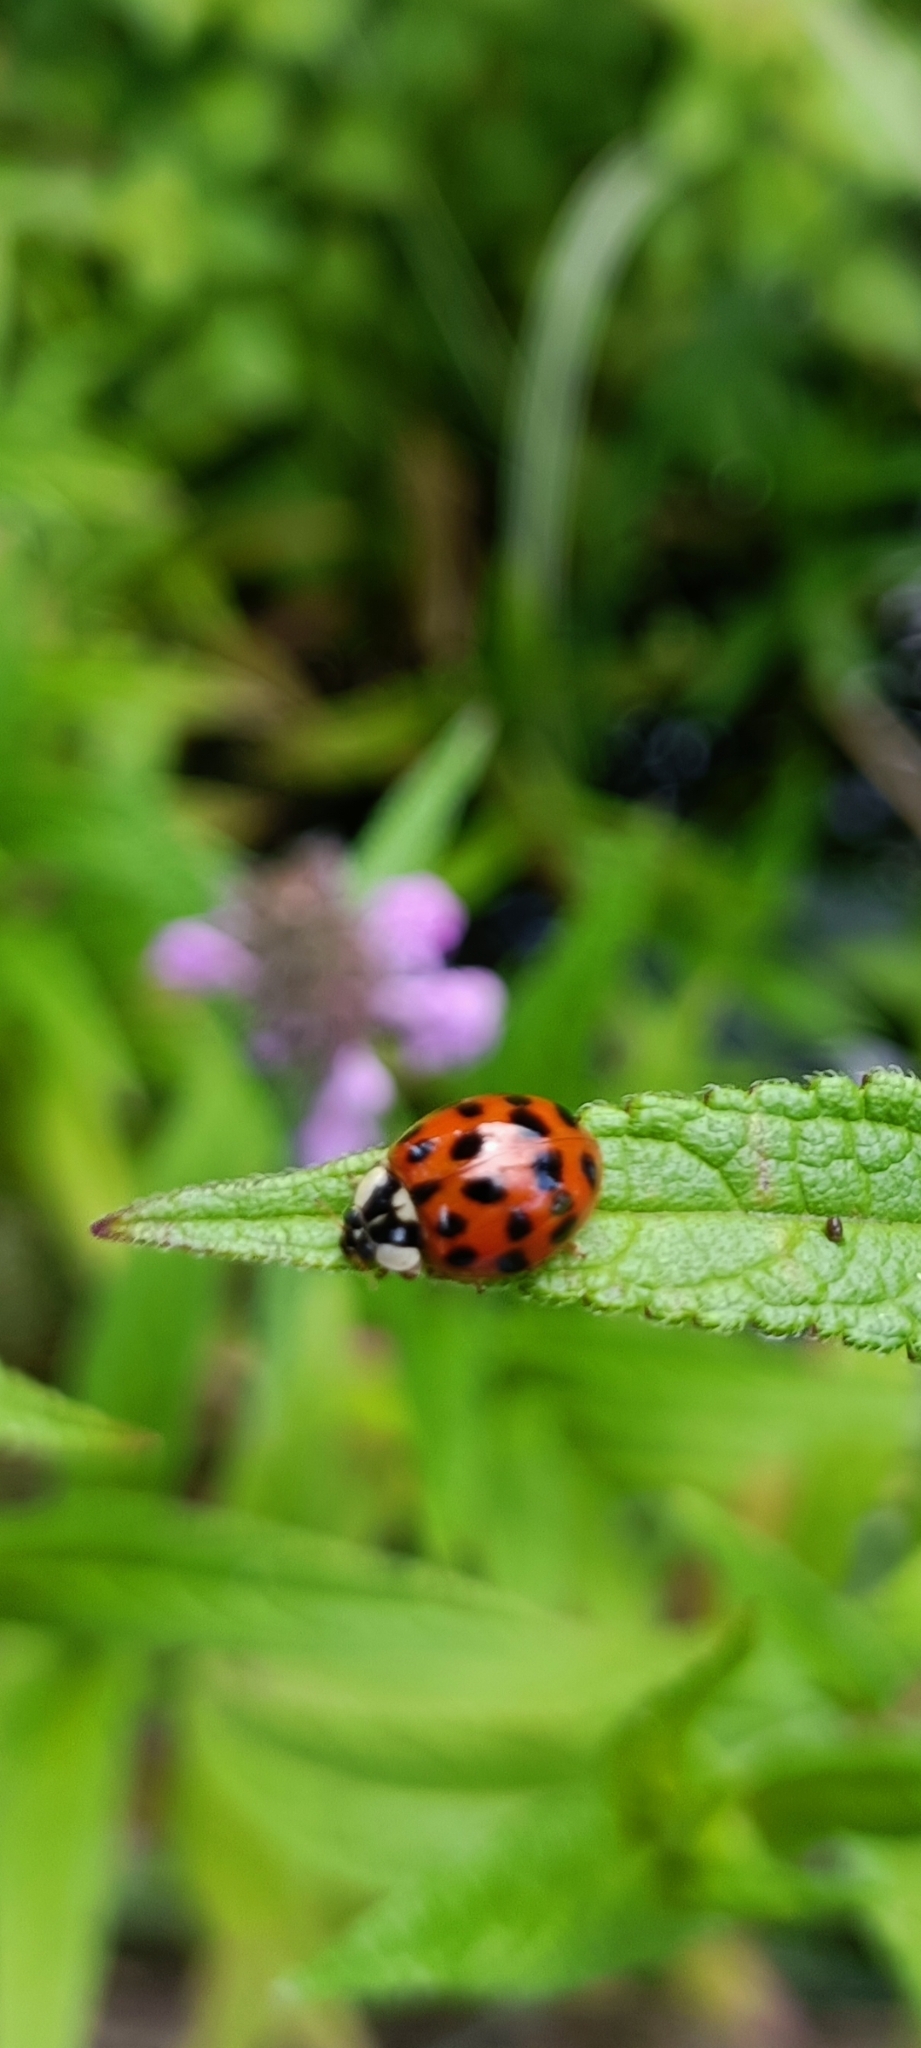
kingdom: Animalia
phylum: Arthropoda
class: Insecta
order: Coleoptera
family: Coccinellidae
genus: Harmonia
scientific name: Harmonia axyridis
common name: Harlequin ladybird
